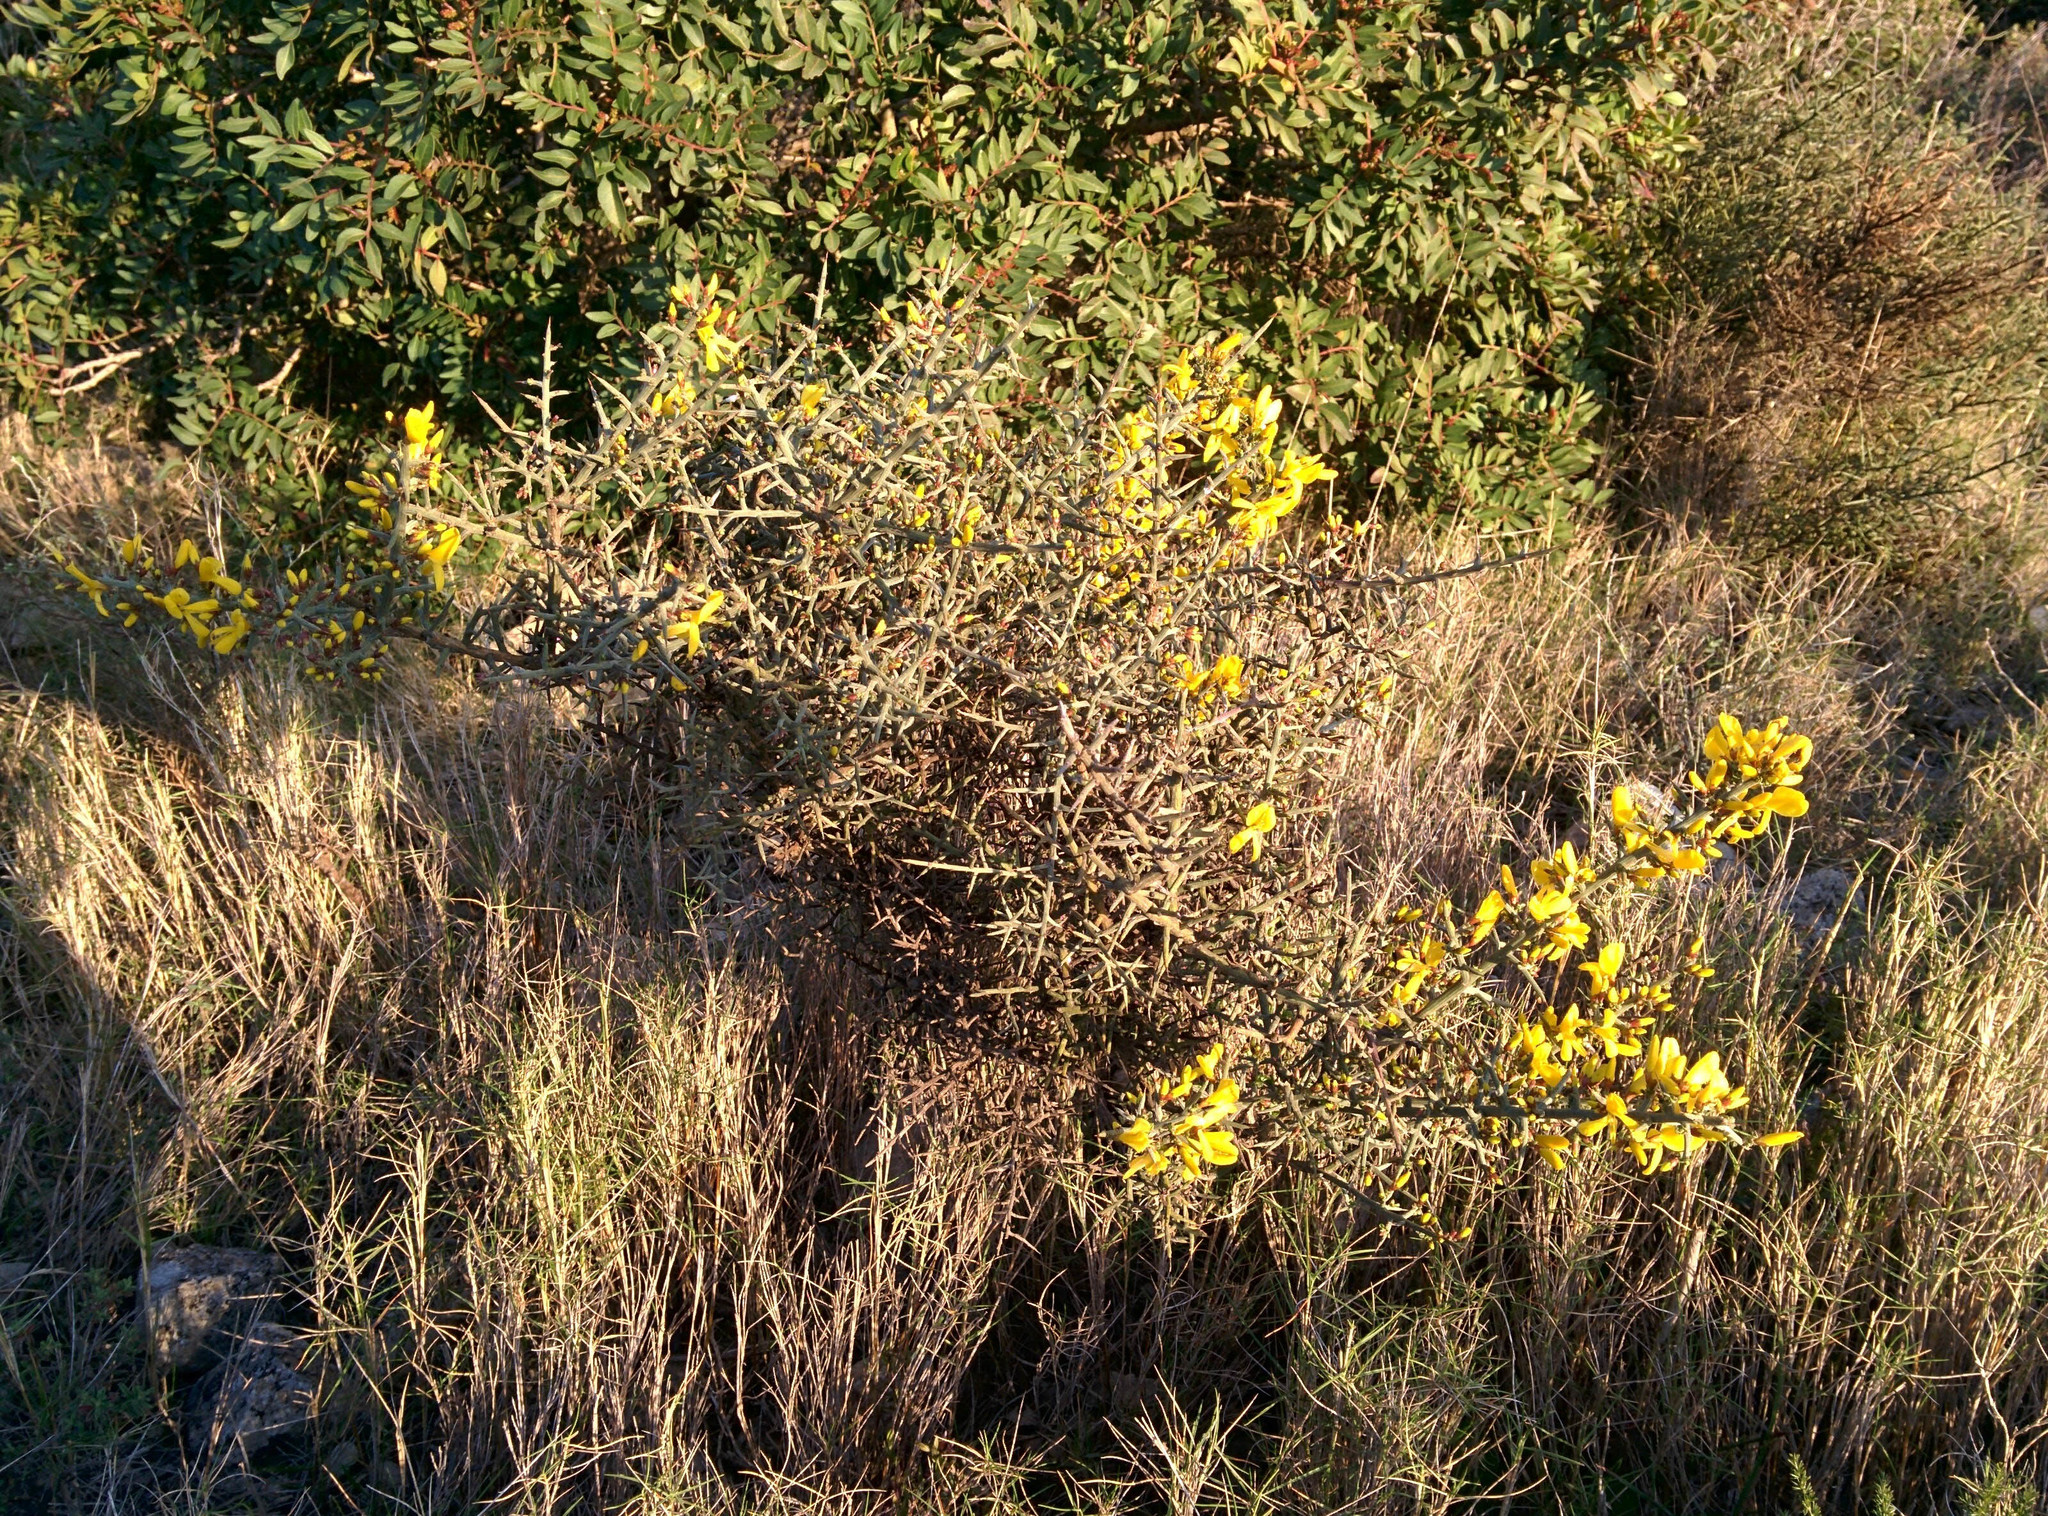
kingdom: Plantae
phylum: Tracheophyta
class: Magnoliopsida
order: Fabales
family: Fabaceae
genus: Genista
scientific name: Genista scorpius
